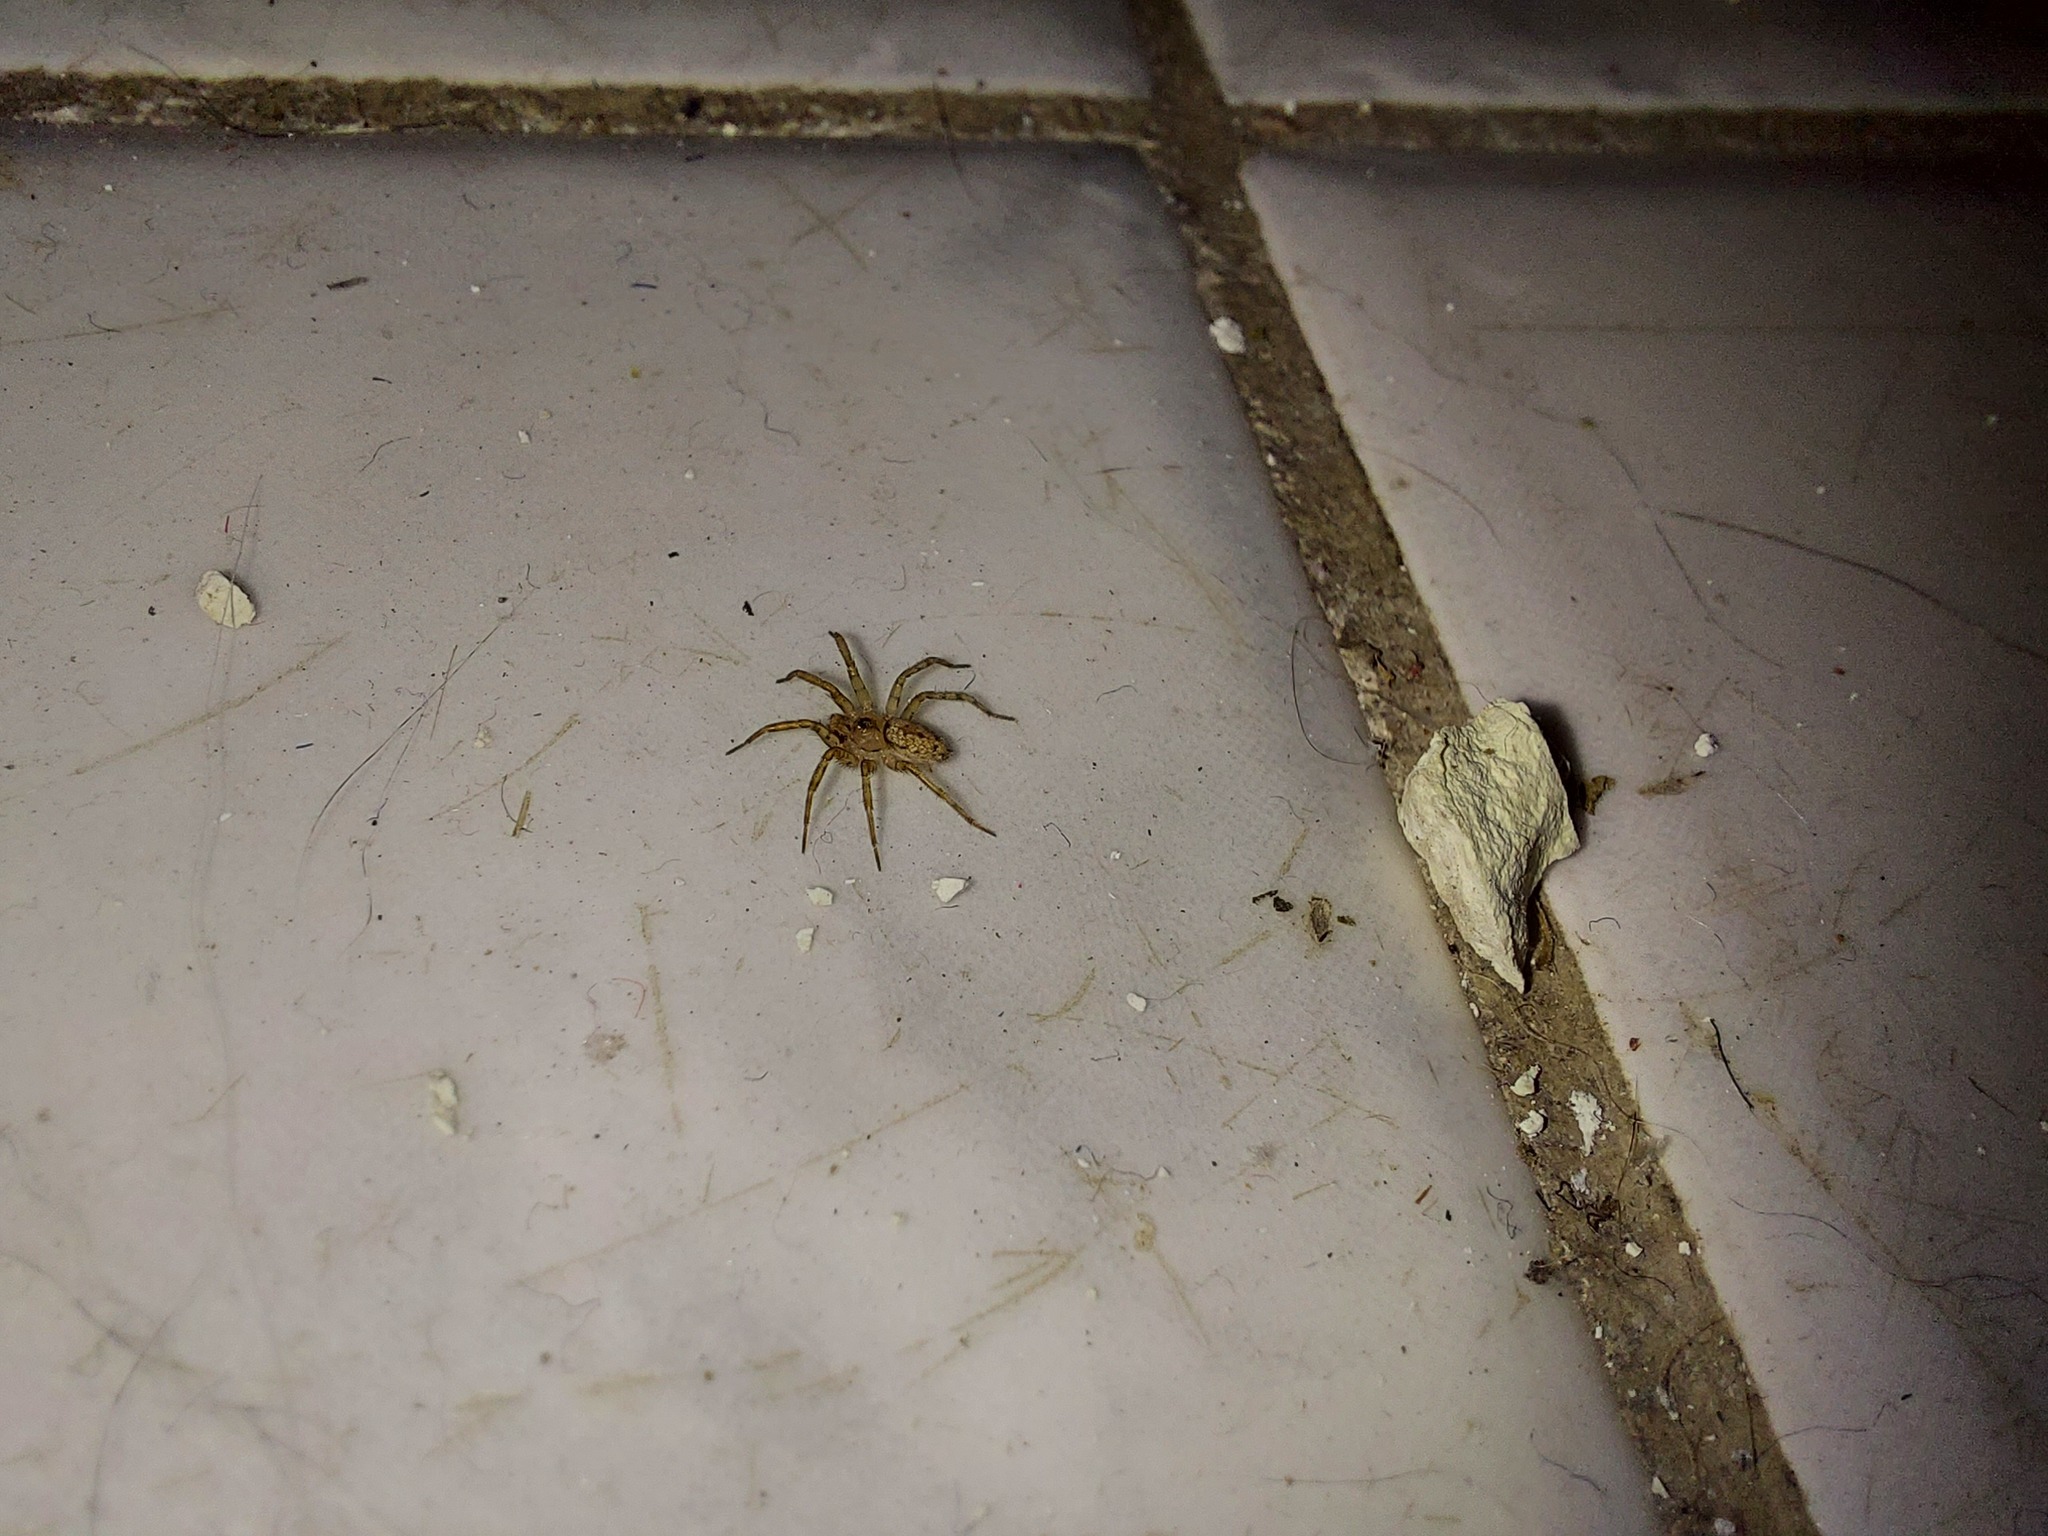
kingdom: Animalia
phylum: Arthropoda
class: Arachnida
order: Araneae
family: Oecobiidae
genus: Oecobius
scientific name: Oecobius navus
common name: Flatmesh weaver
